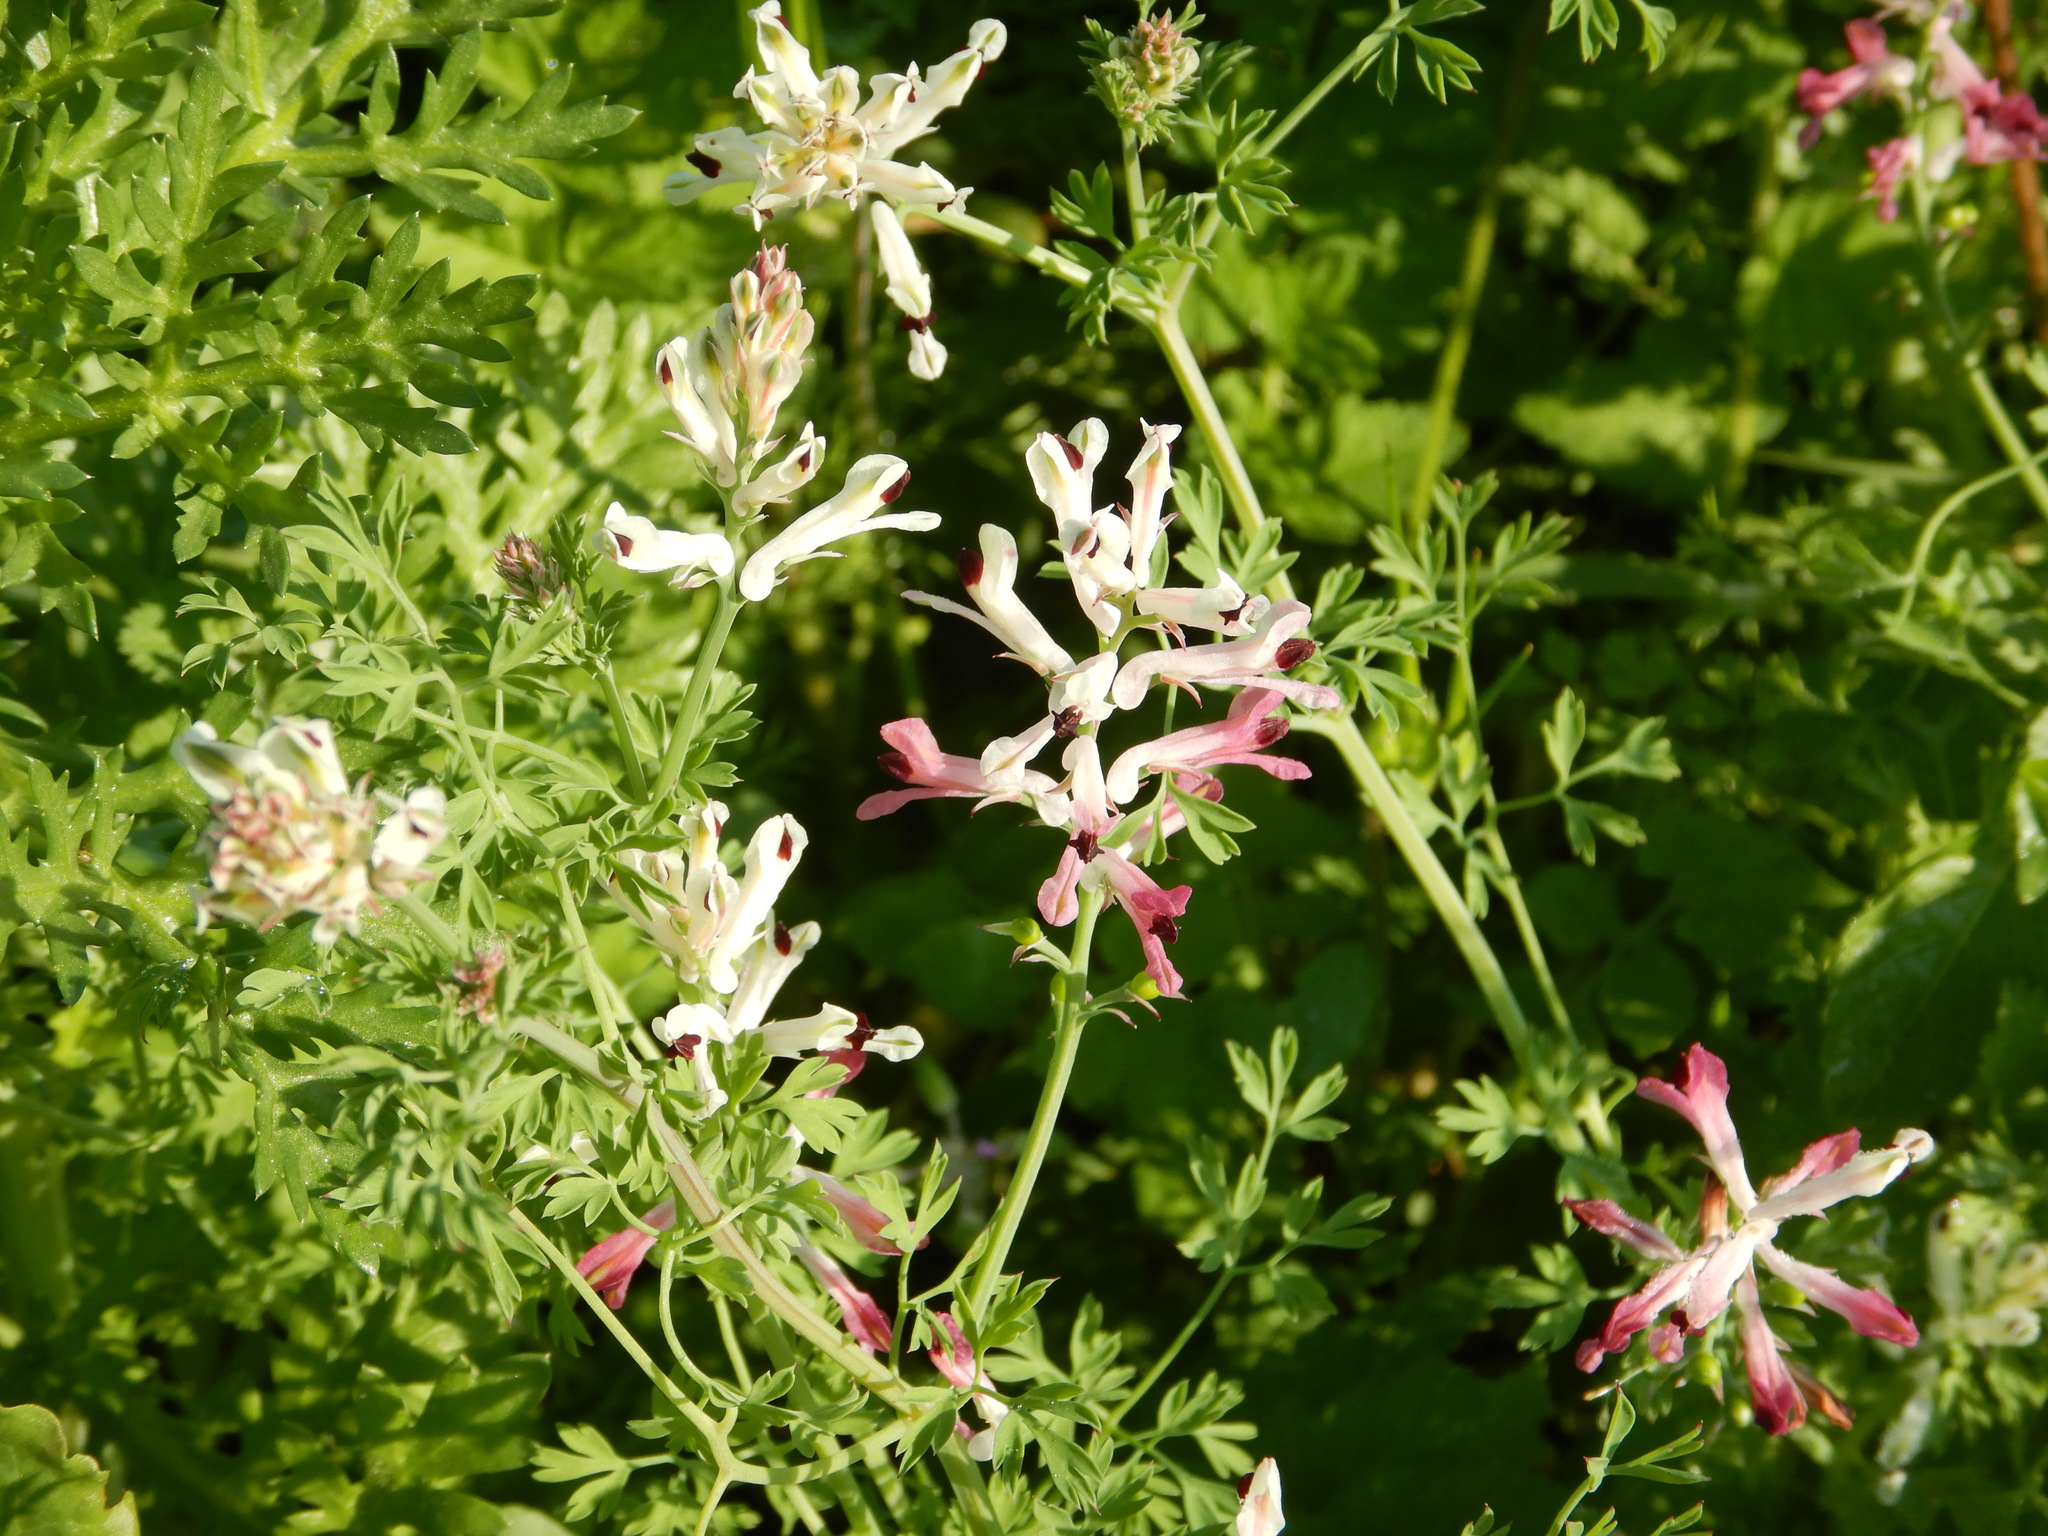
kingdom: Plantae
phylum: Tracheophyta
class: Magnoliopsida
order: Ranunculales
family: Papaveraceae
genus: Fumaria
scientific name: Fumaria agraria
